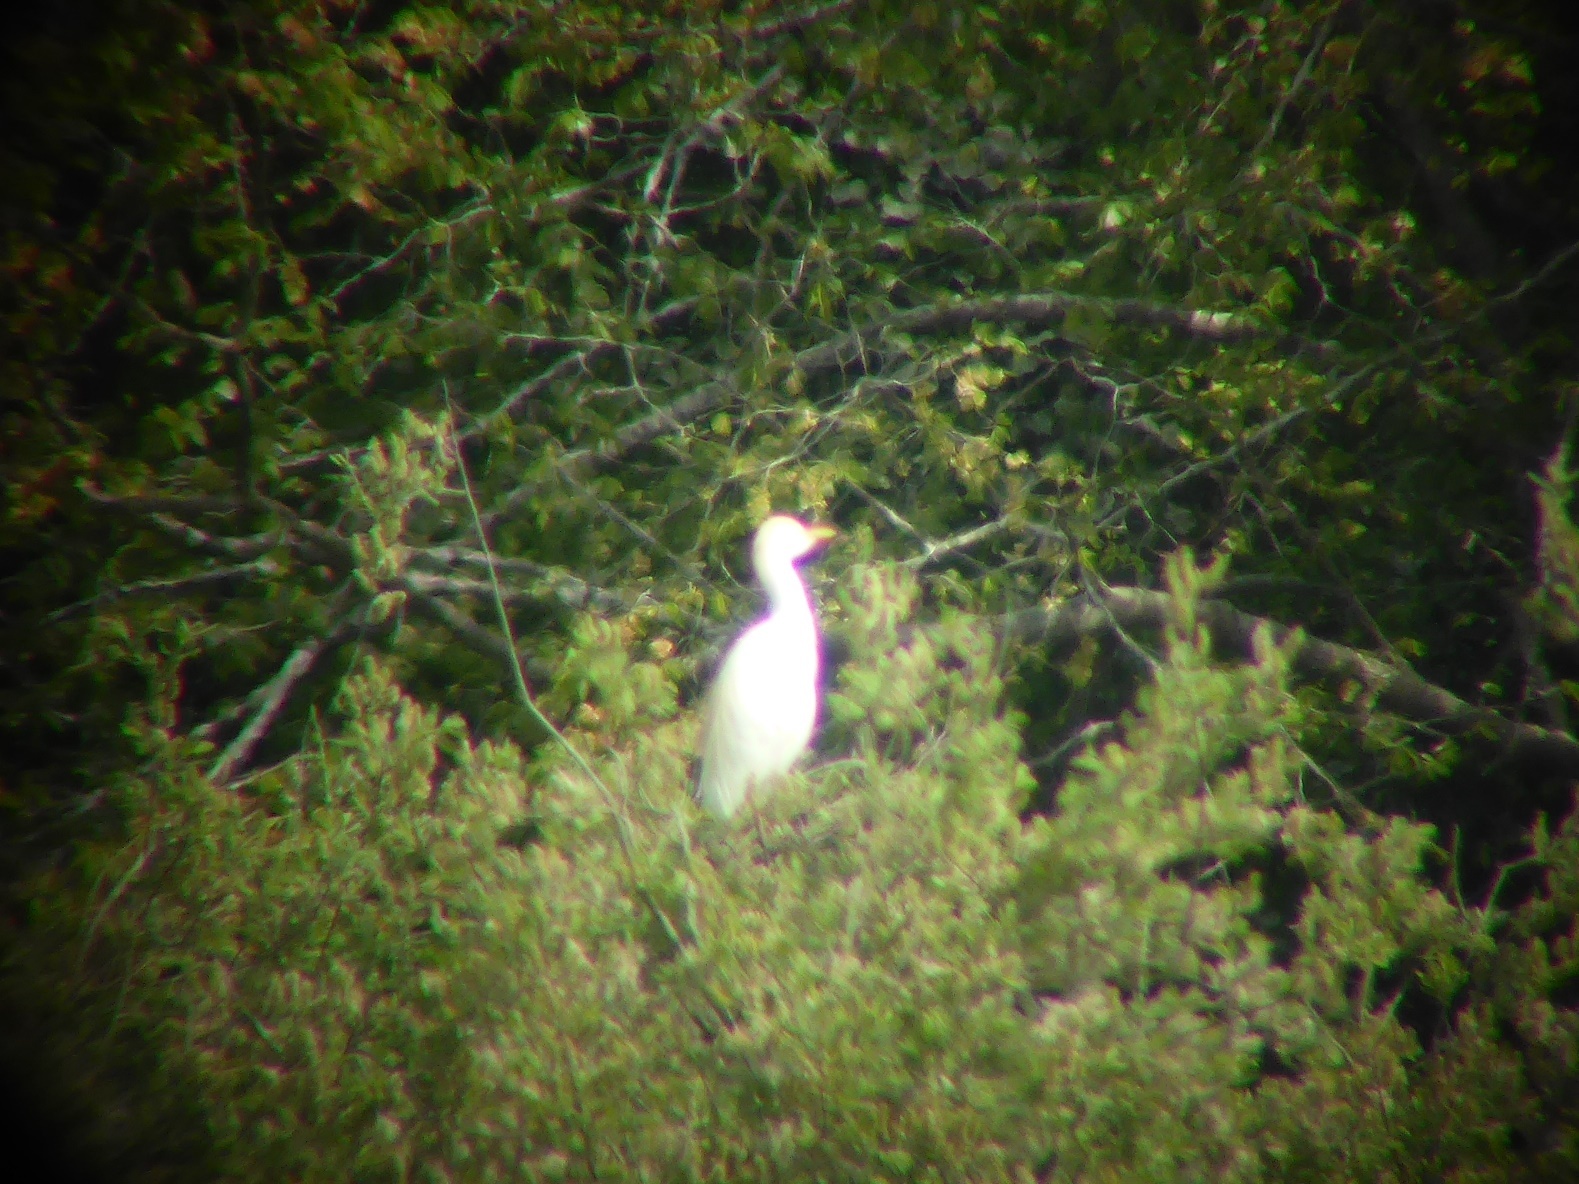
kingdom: Animalia
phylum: Chordata
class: Aves
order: Pelecaniformes
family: Ardeidae
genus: Bubulcus
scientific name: Bubulcus ibis
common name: Cattle egret
